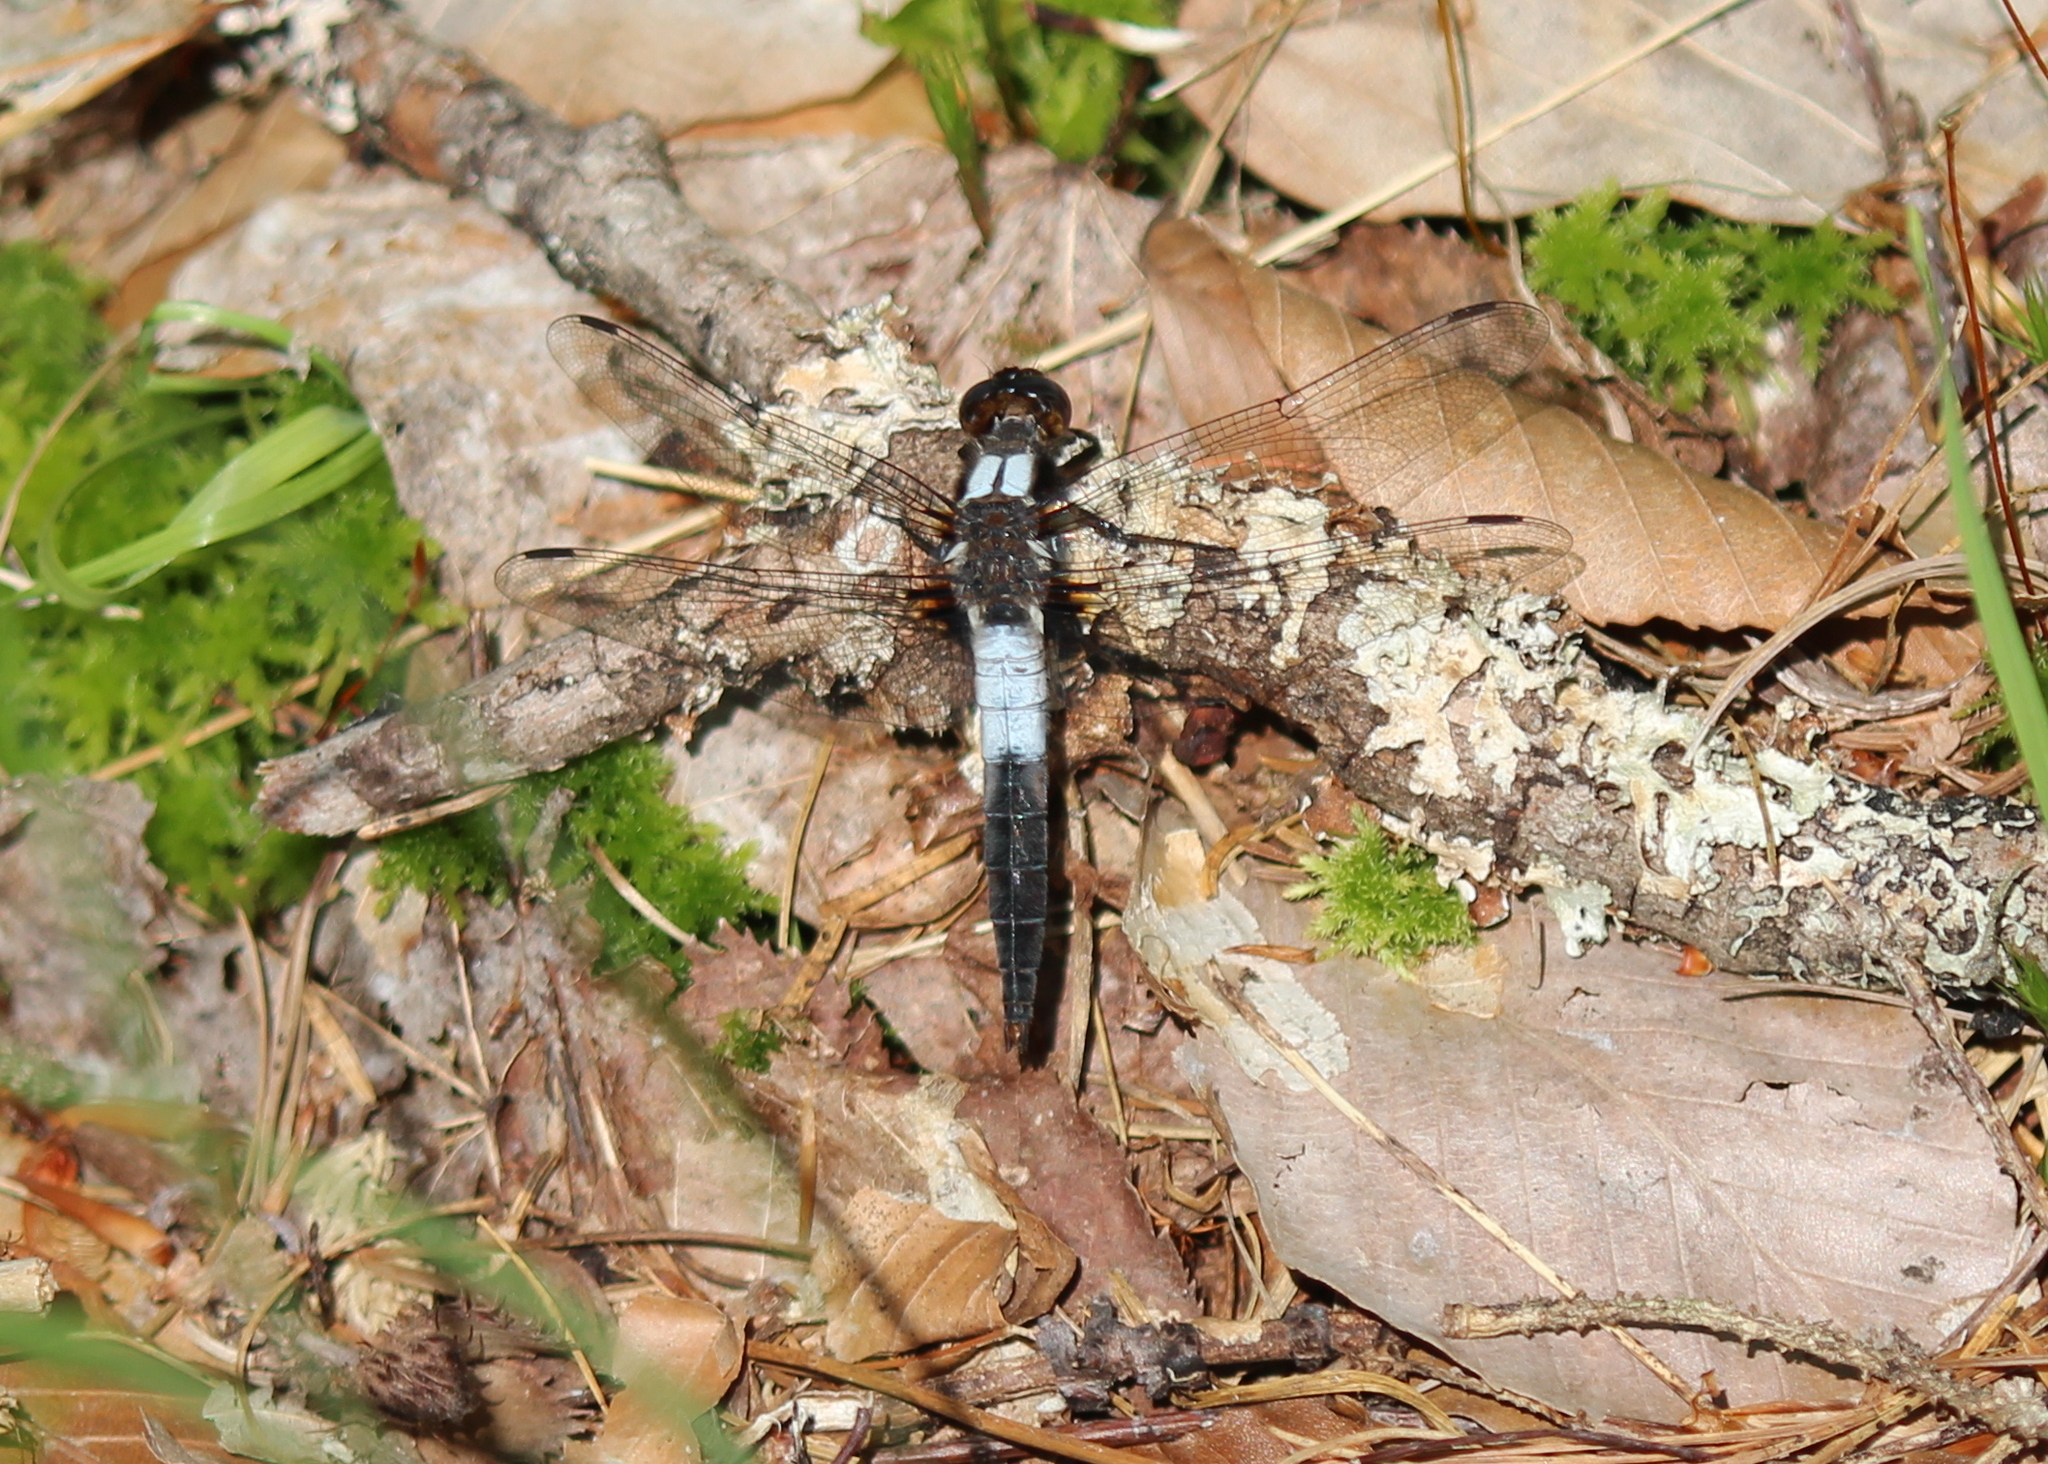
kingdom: Animalia
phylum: Arthropoda
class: Insecta
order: Odonata
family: Libellulidae
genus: Ladona
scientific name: Ladona julia
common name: Chalk-fronted corporal
